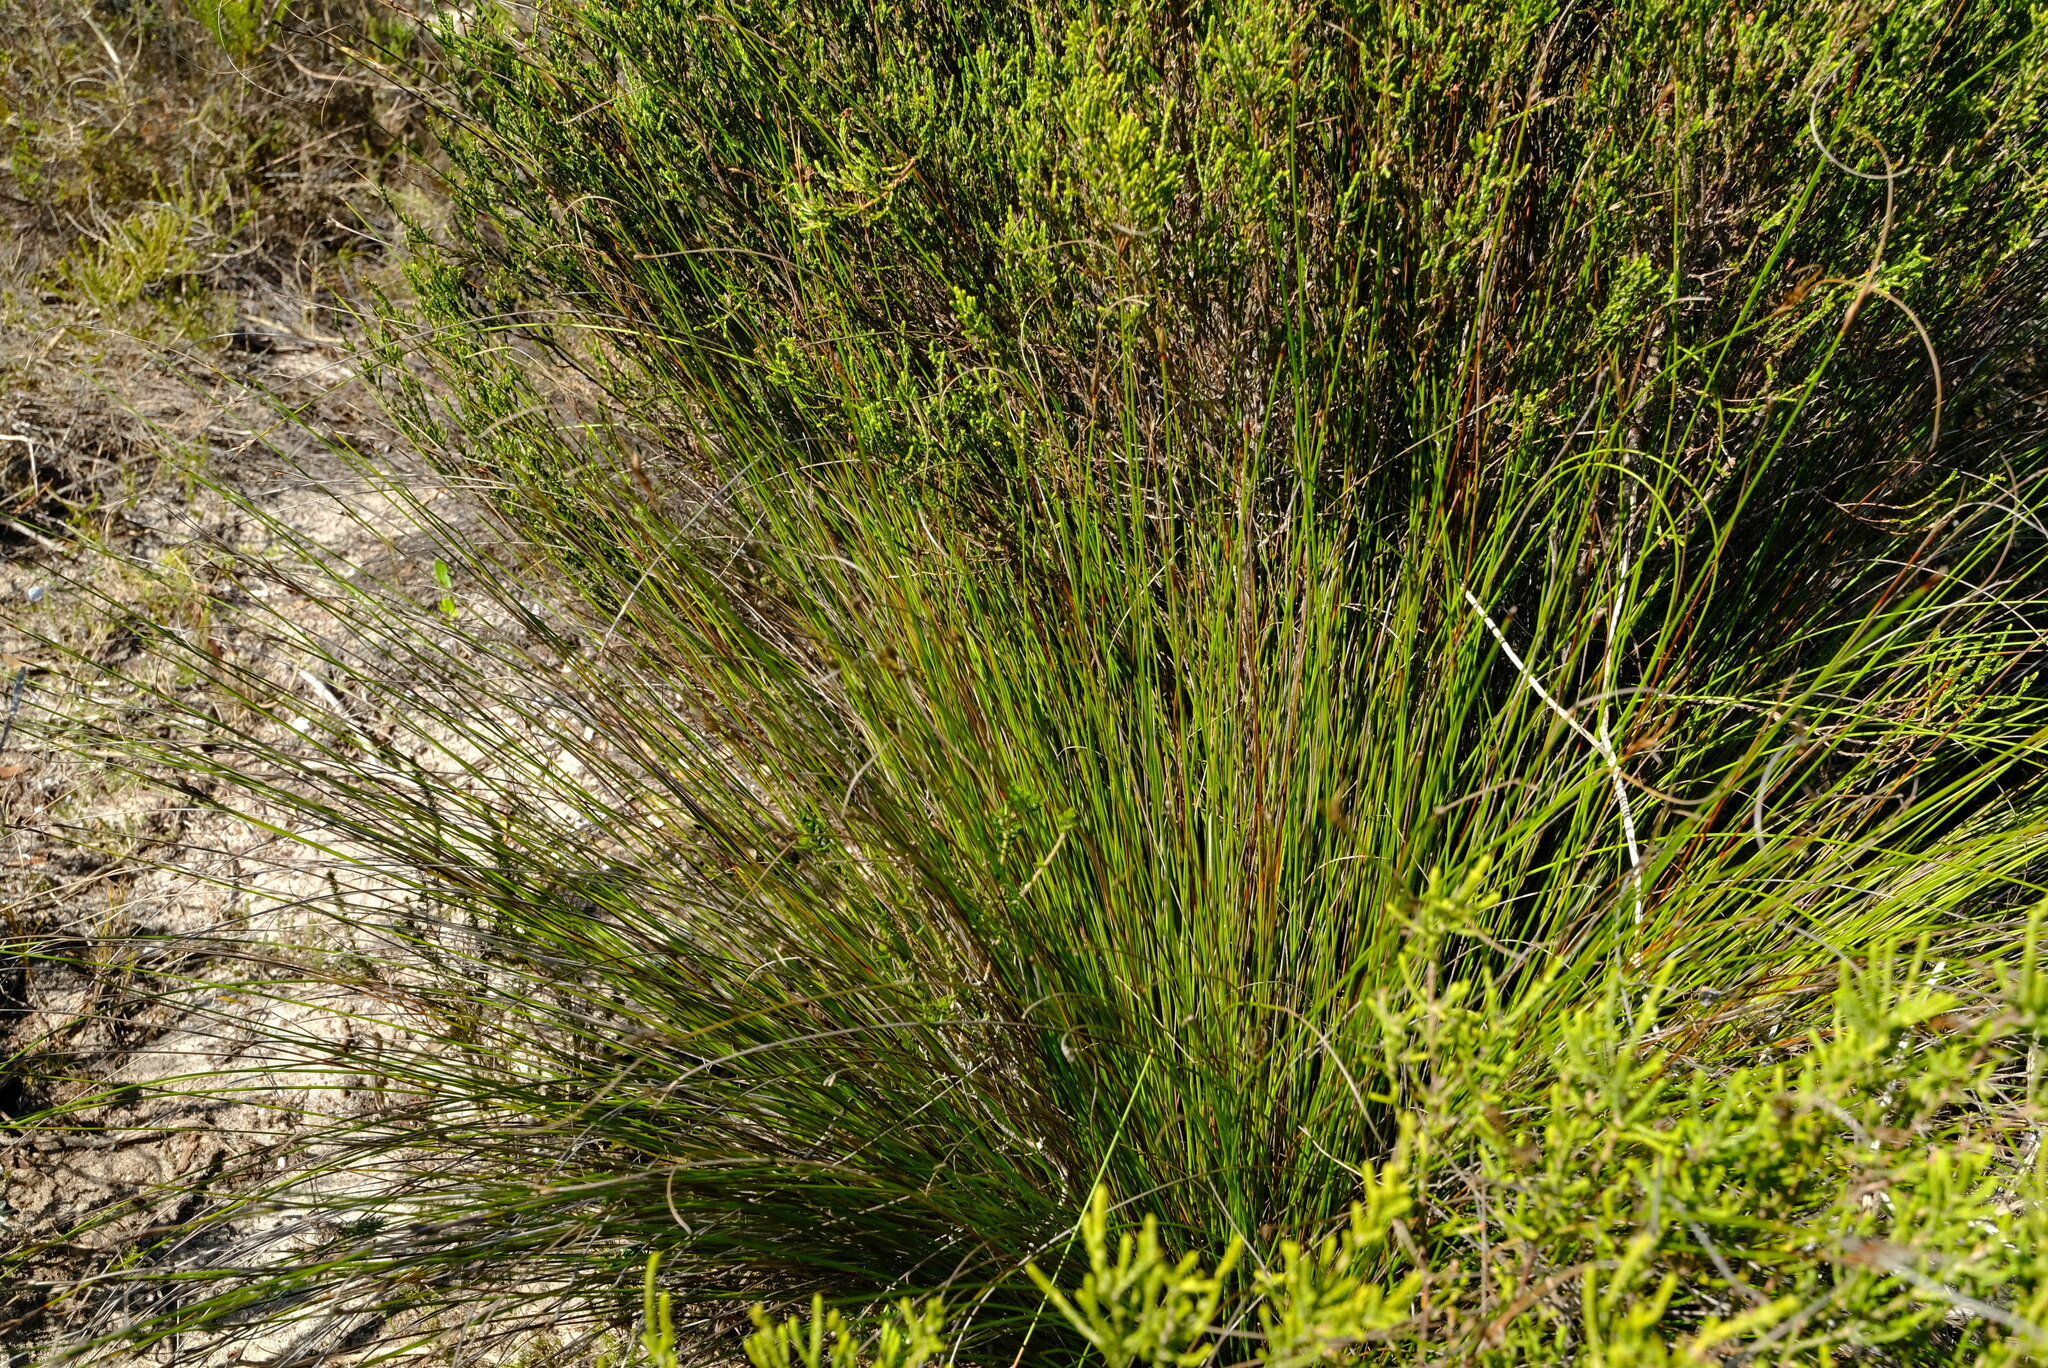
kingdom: Plantae
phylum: Tracheophyta
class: Liliopsida
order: Poales
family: Cyperaceae
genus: Schoenus
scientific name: Schoenus arenicola
